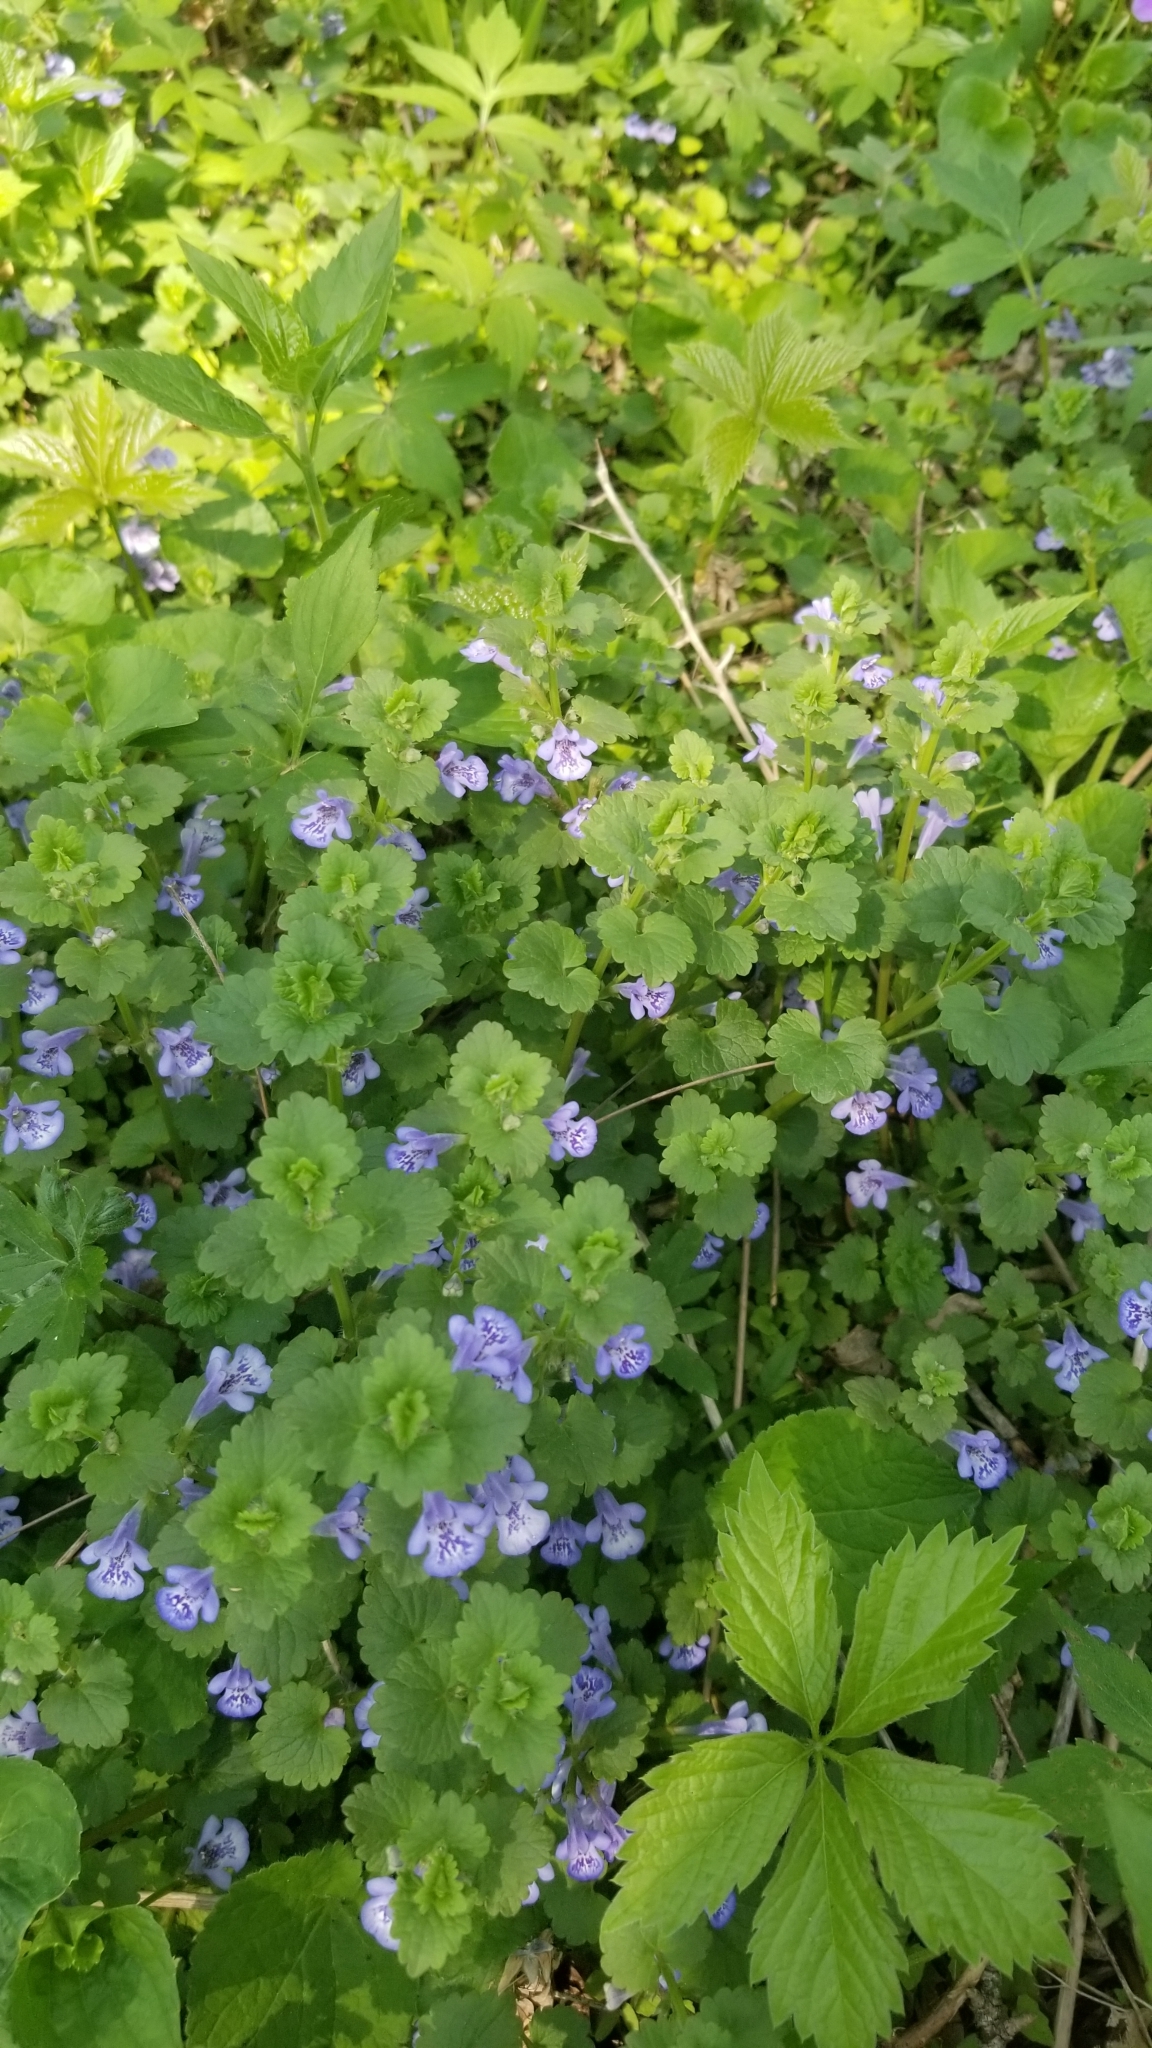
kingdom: Plantae
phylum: Tracheophyta
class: Magnoliopsida
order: Lamiales
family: Lamiaceae
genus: Glechoma
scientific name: Glechoma hederacea
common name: Ground ivy
